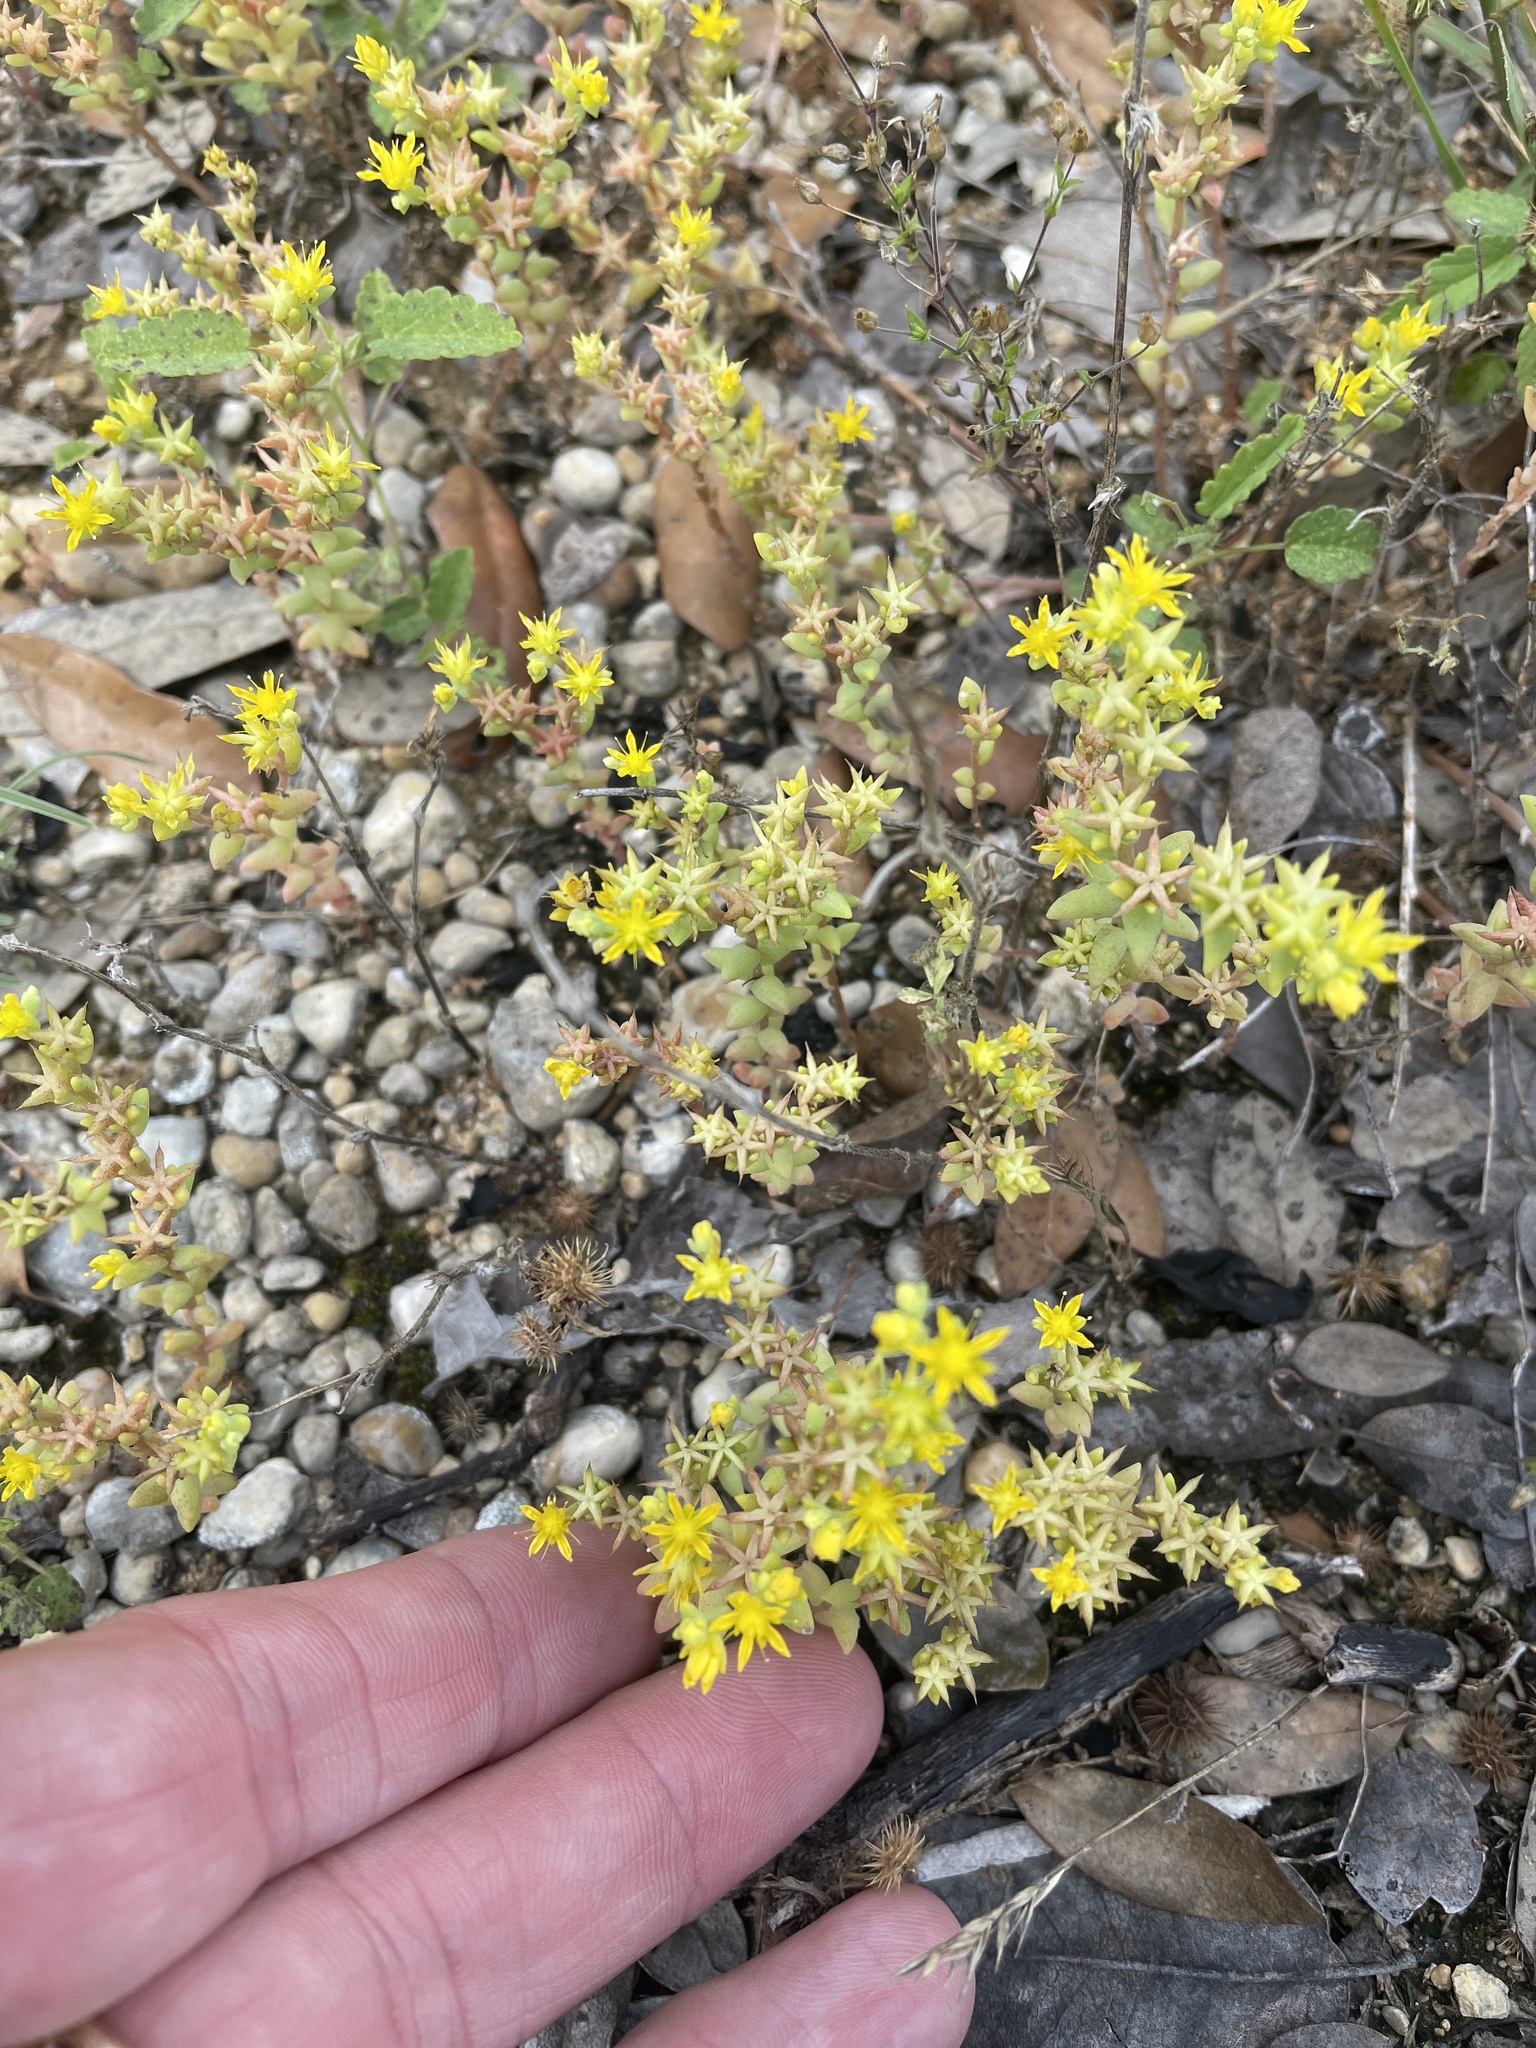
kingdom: Plantae
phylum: Tracheophyta
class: Magnoliopsida
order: Saxifragales
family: Crassulaceae
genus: Sedum
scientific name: Sedum nuttallii
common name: Yellow stonecrop
